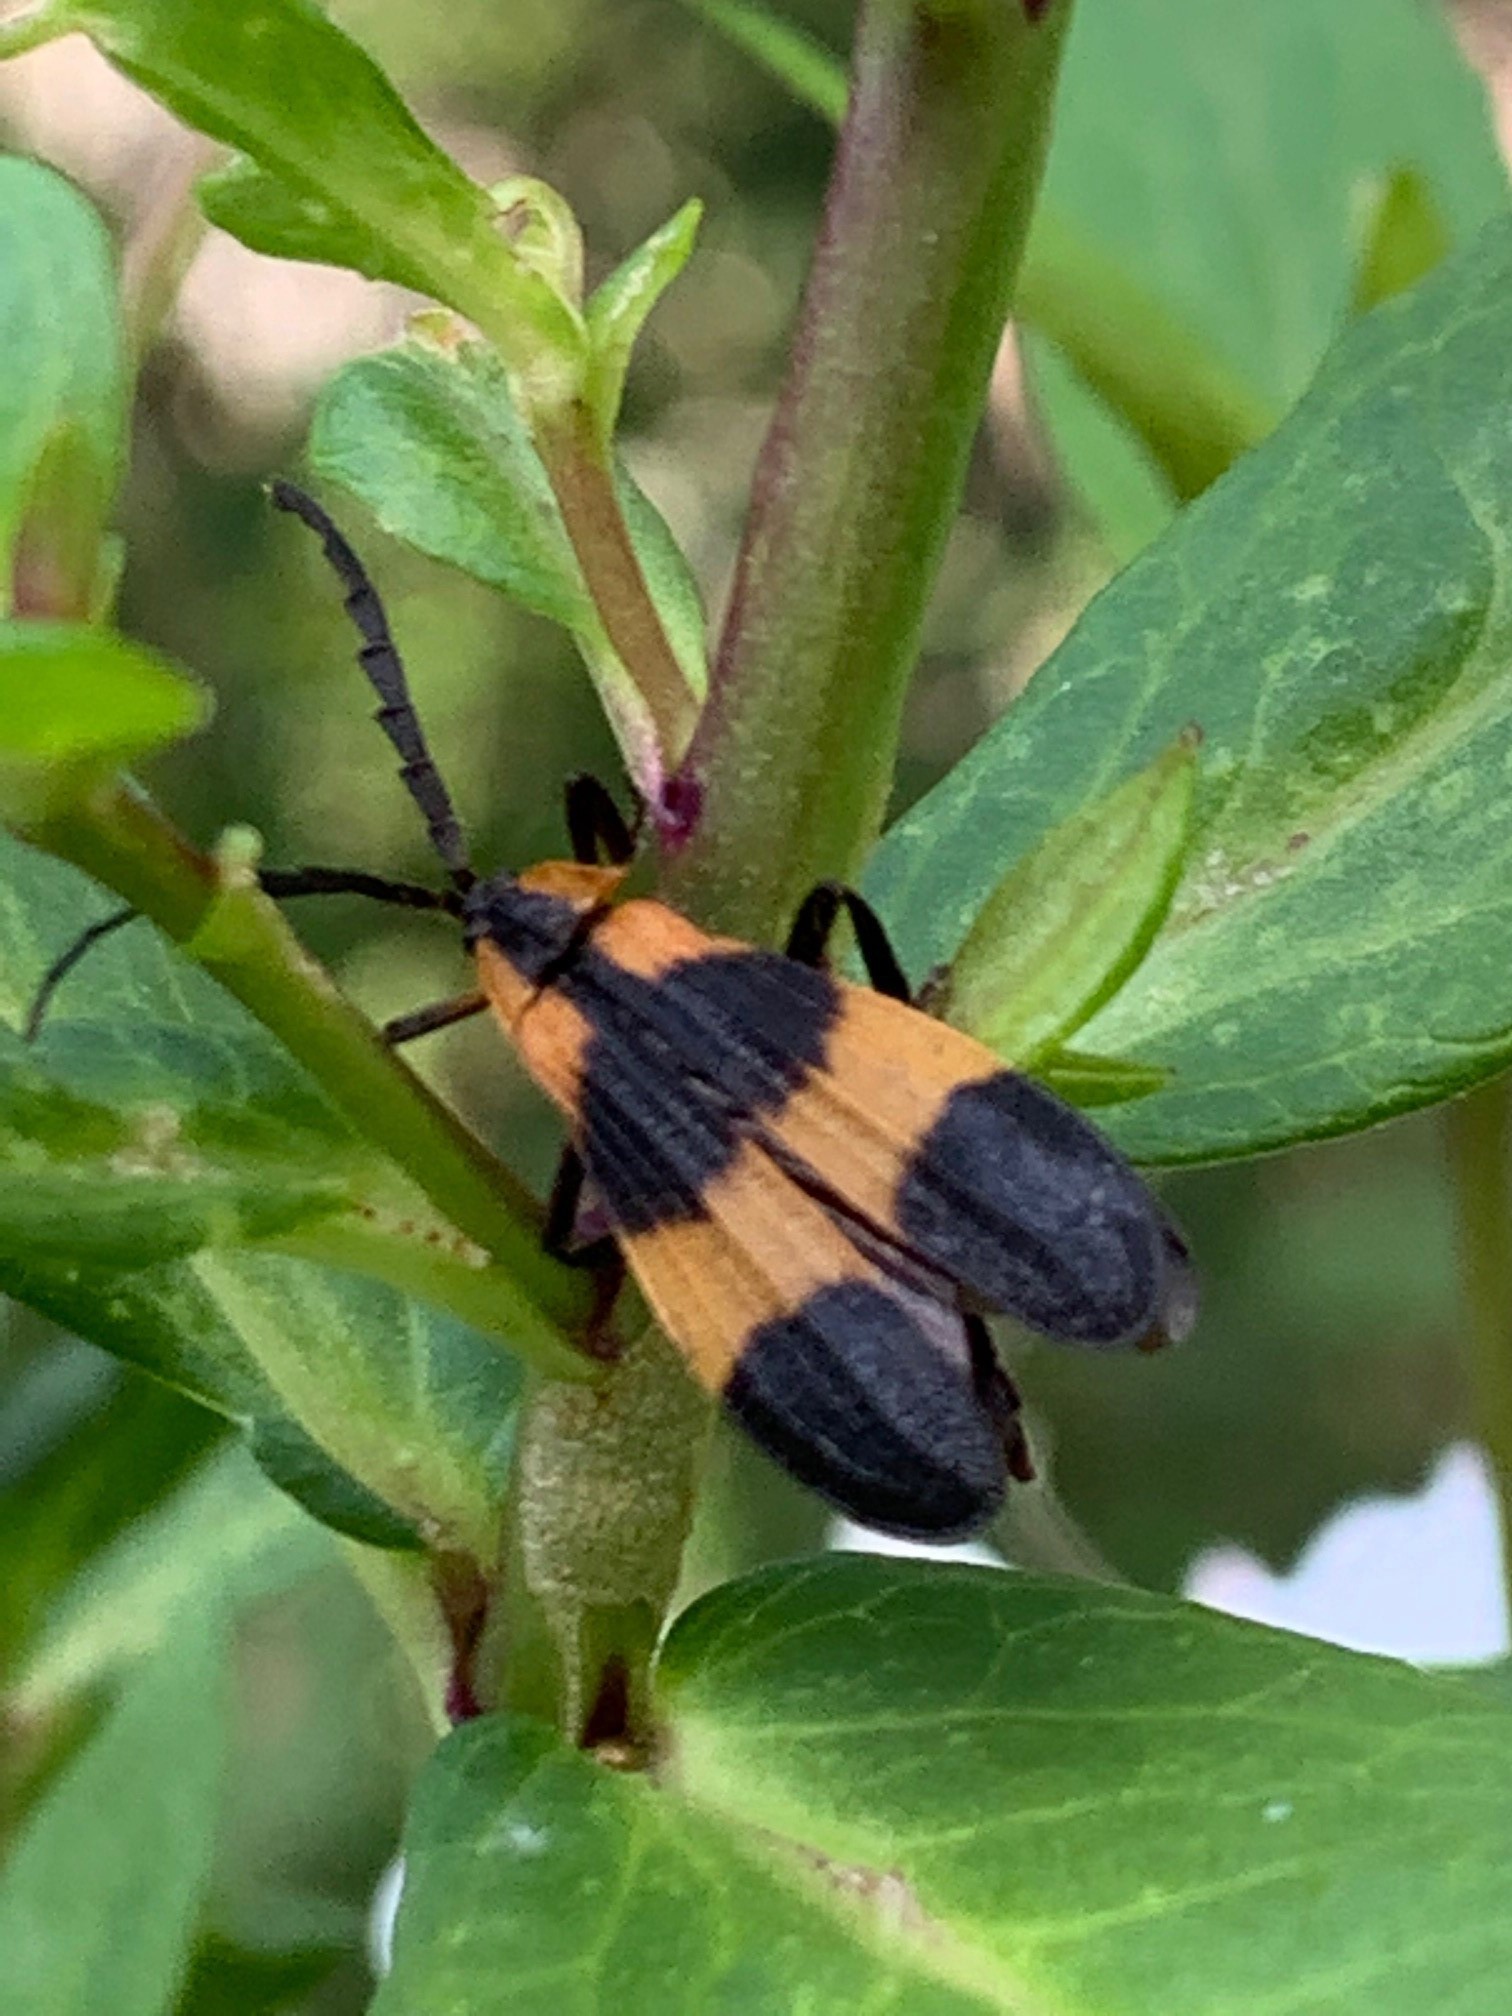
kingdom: Animalia
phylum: Arthropoda
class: Insecta
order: Coleoptera
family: Lycidae
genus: Calopteron
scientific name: Calopteron reticulatum
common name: Banded net-winged beetle
